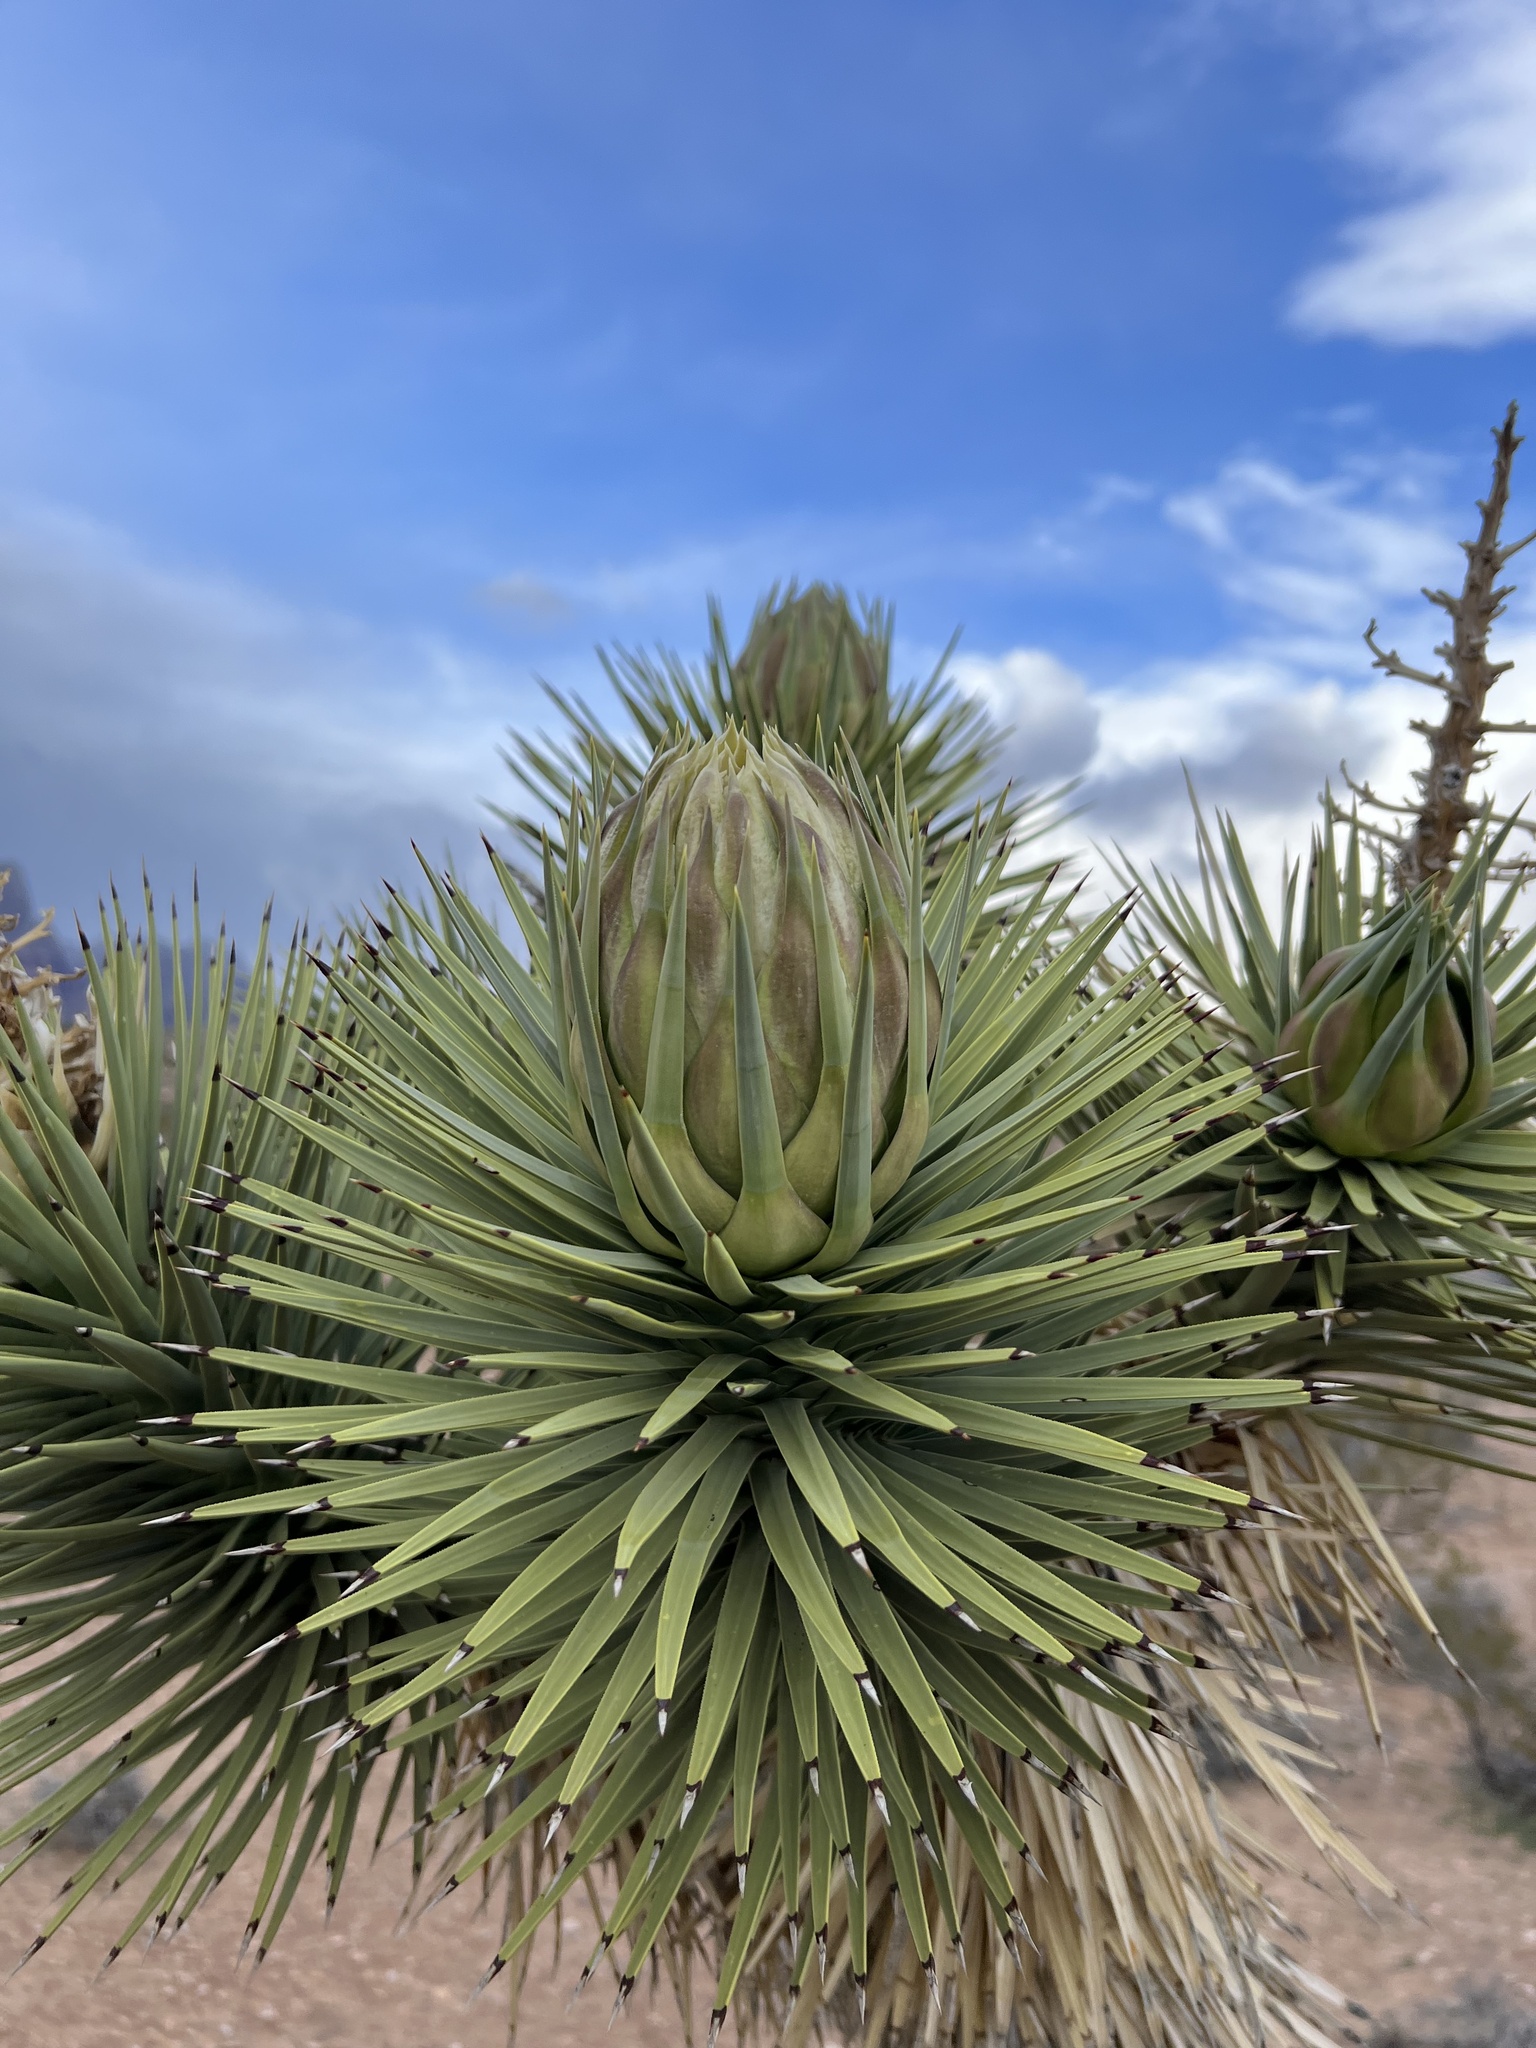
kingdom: Plantae
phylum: Tracheophyta
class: Liliopsida
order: Asparagales
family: Asparagaceae
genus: Yucca
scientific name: Yucca brevifolia
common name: Joshua tree
